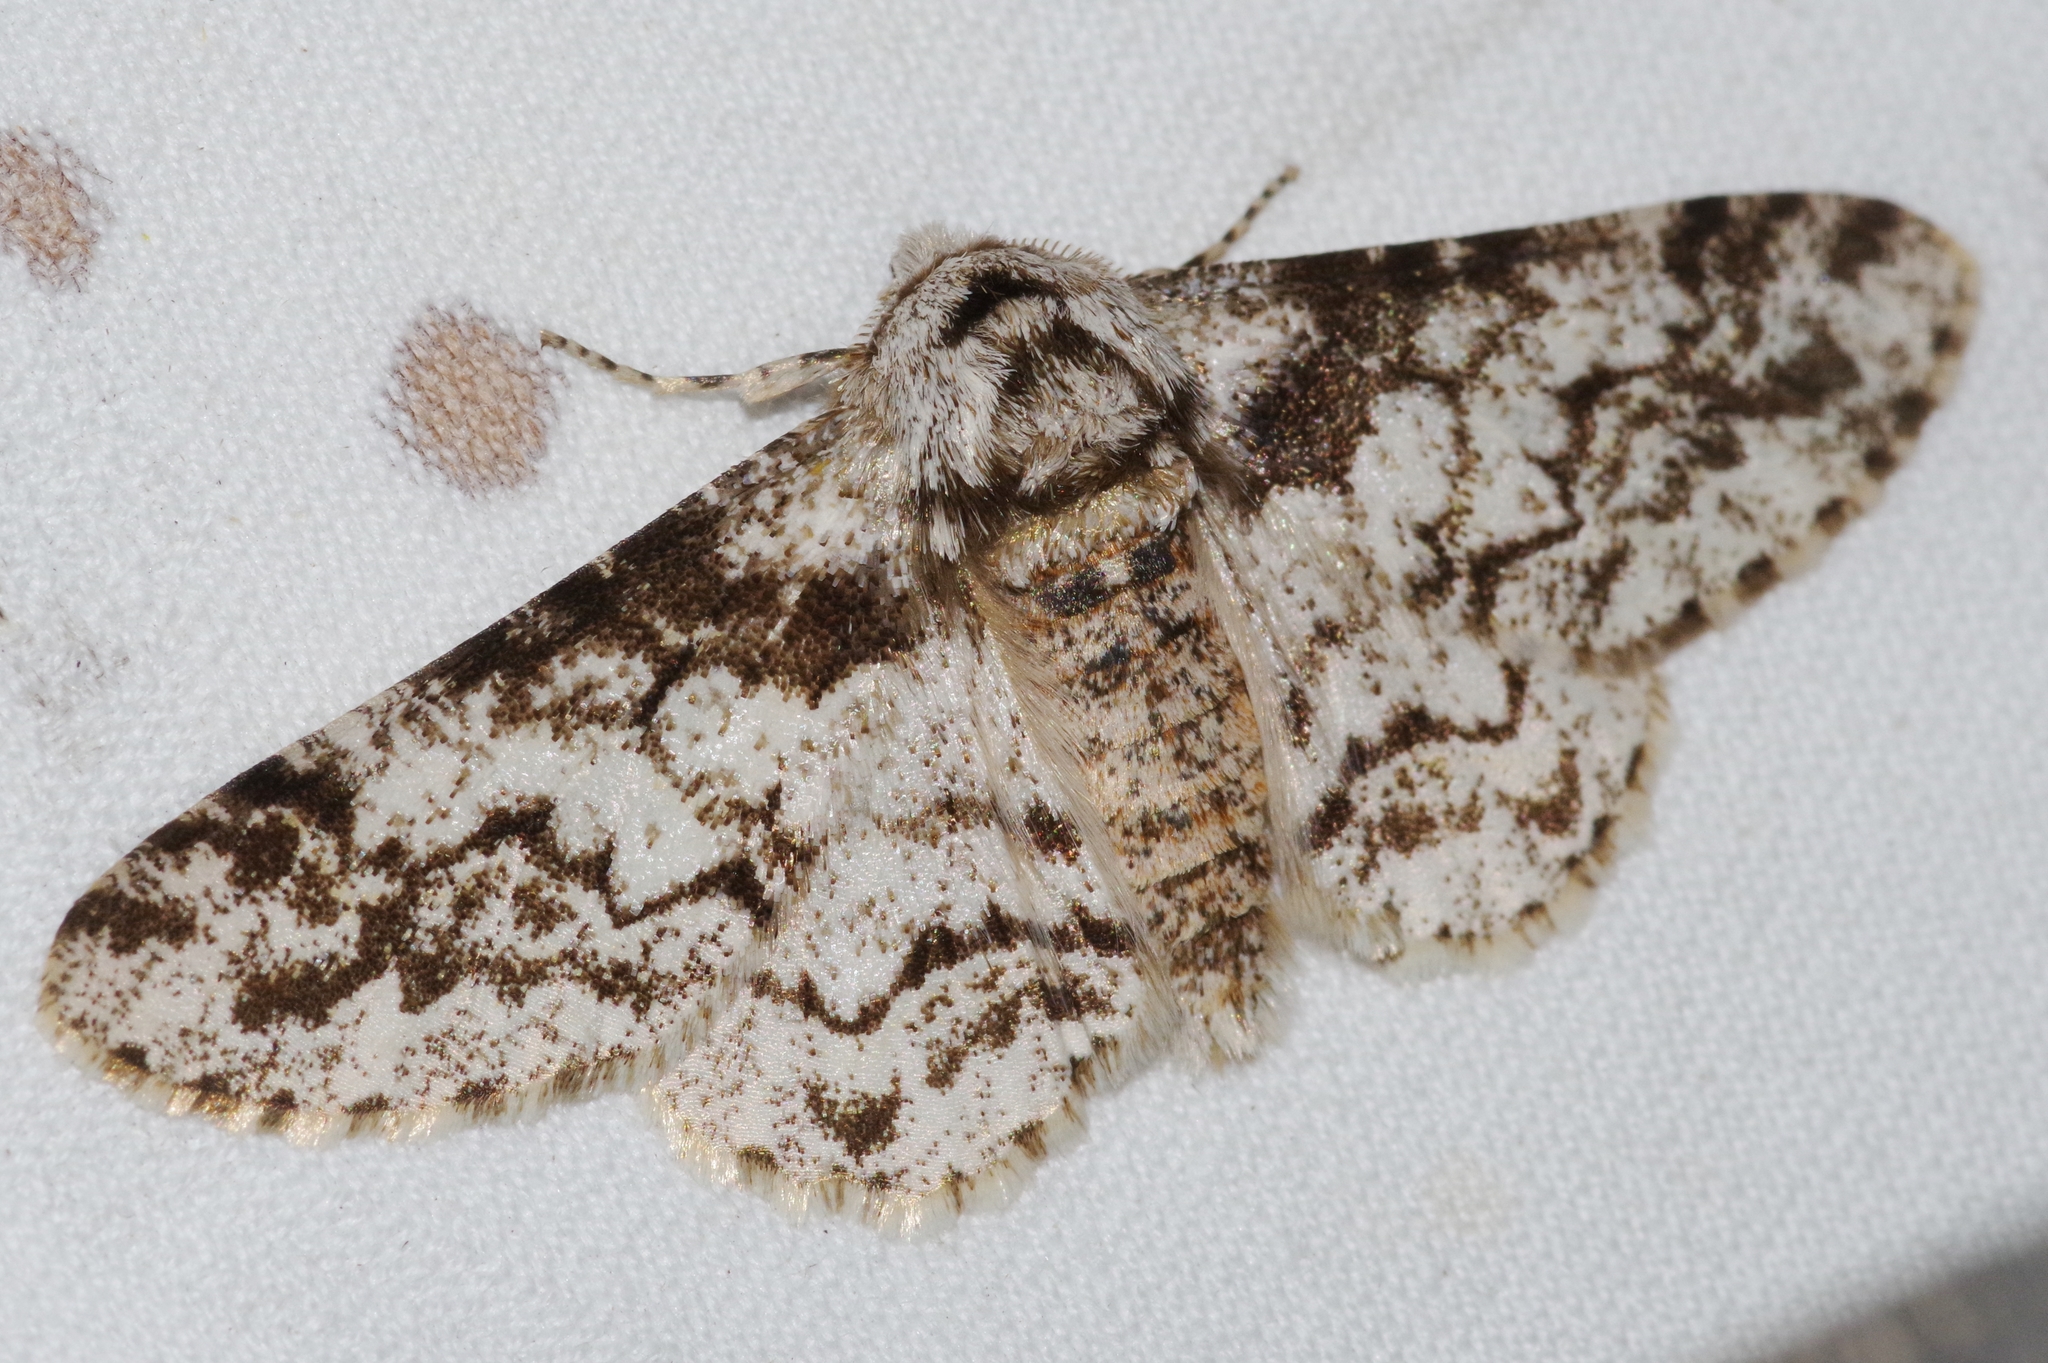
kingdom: Animalia
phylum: Arthropoda
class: Insecta
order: Lepidoptera
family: Geometridae
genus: Biston
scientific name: Biston marginata
